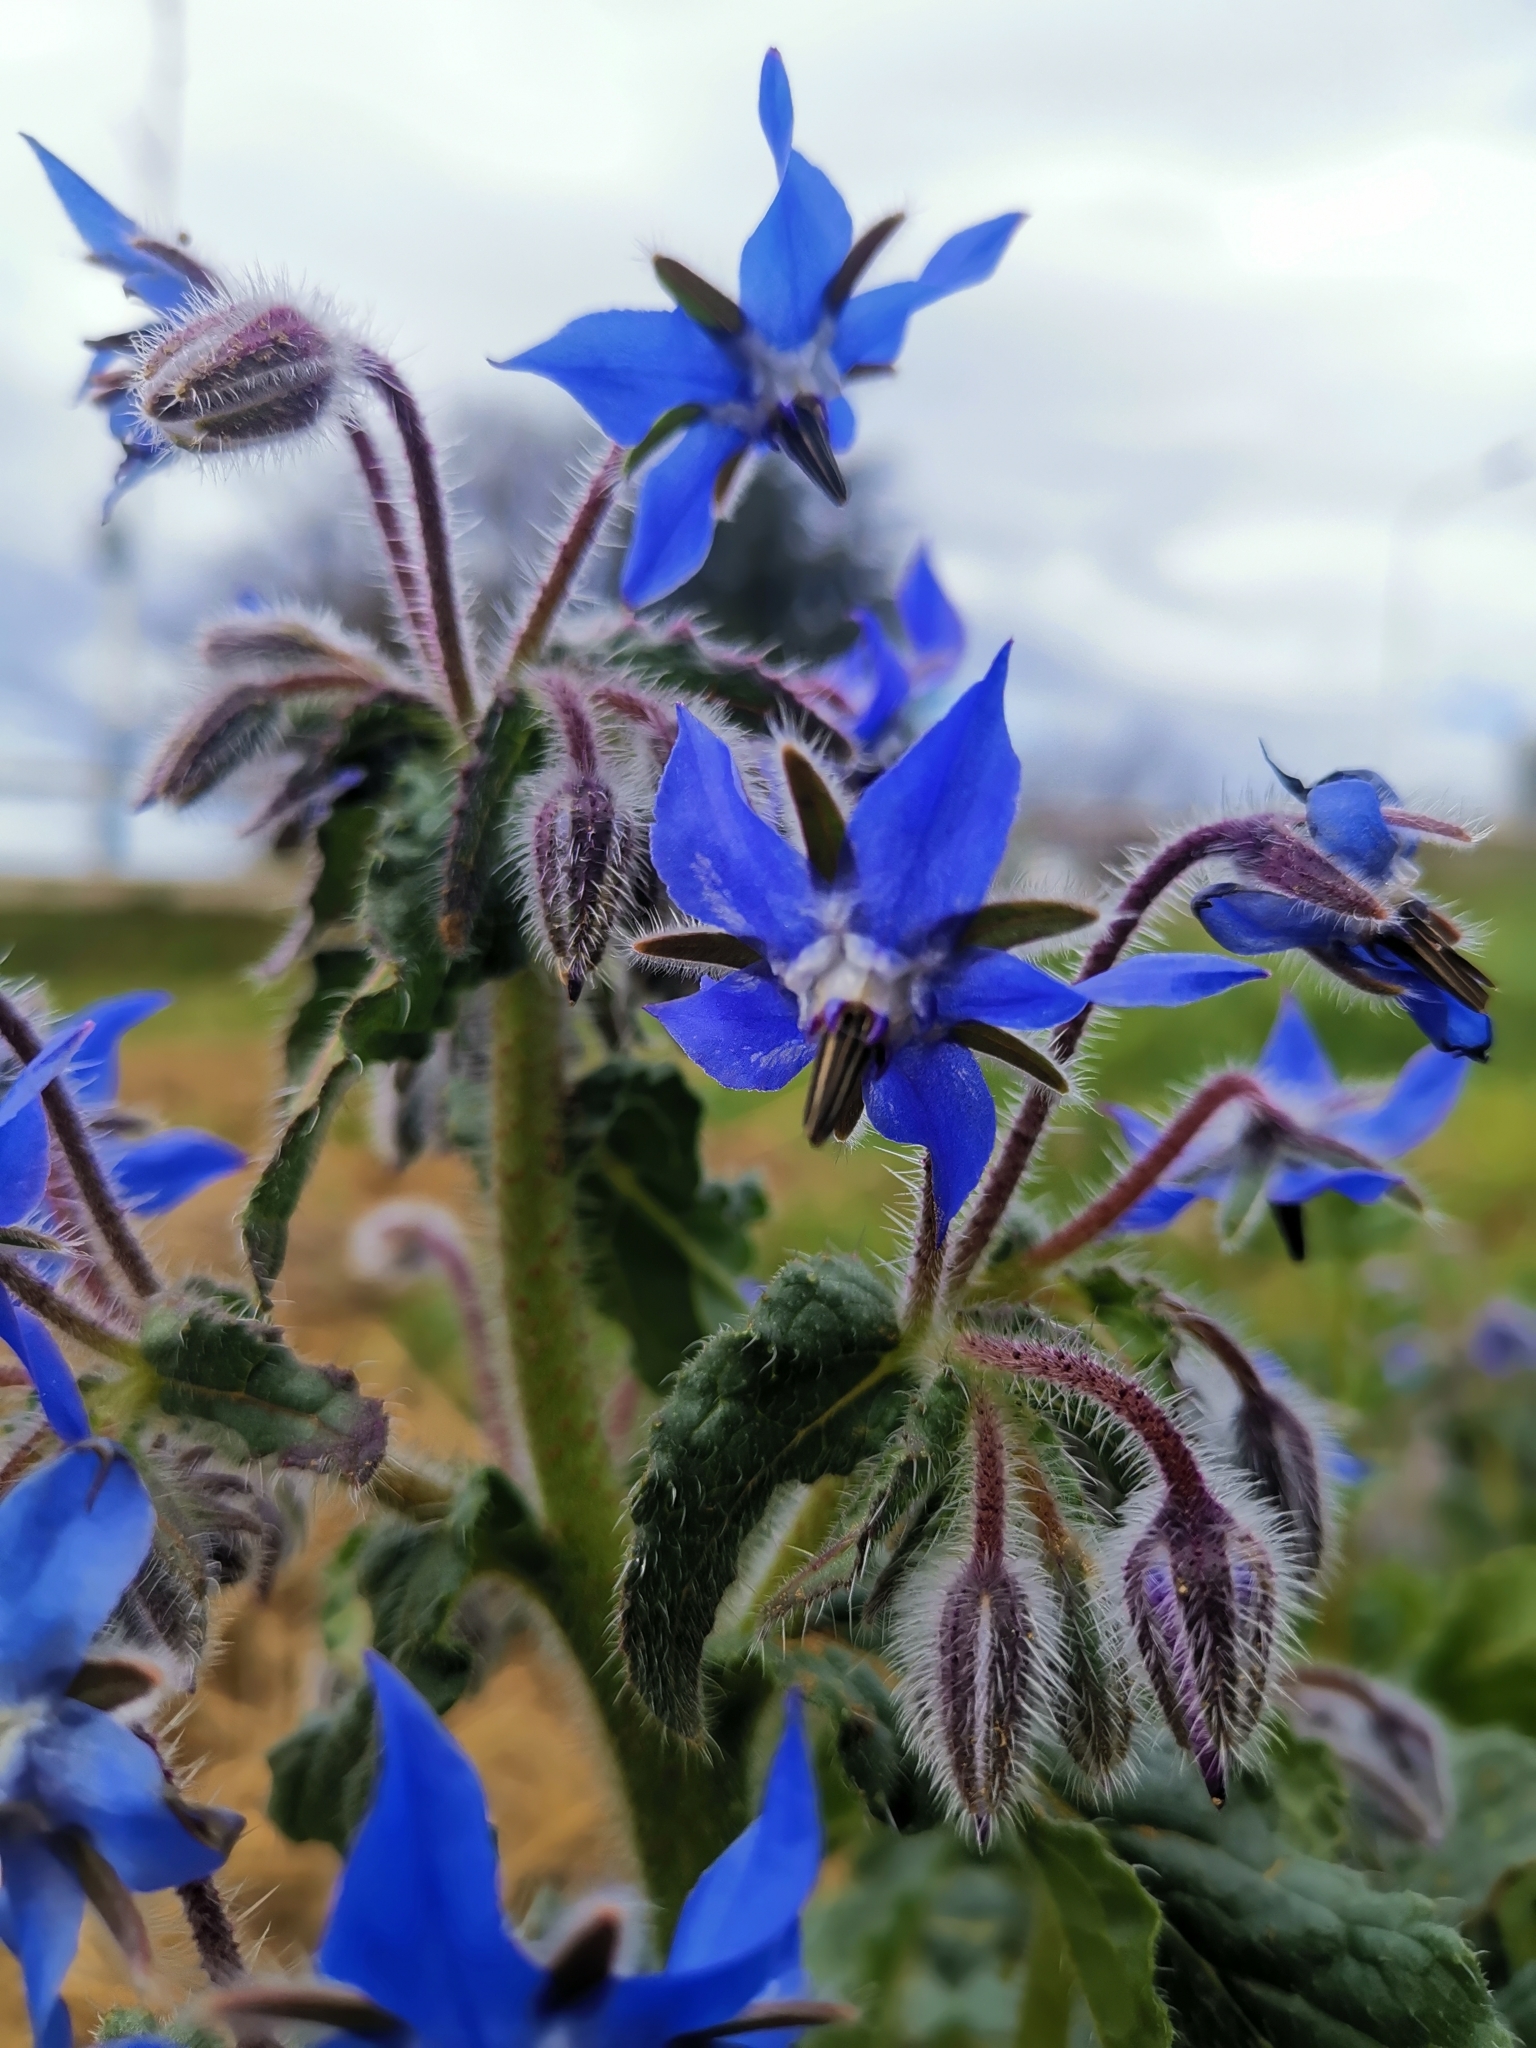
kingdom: Plantae
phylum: Tracheophyta
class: Magnoliopsida
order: Boraginales
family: Boraginaceae
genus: Borago
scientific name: Borago officinalis
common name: Borage
